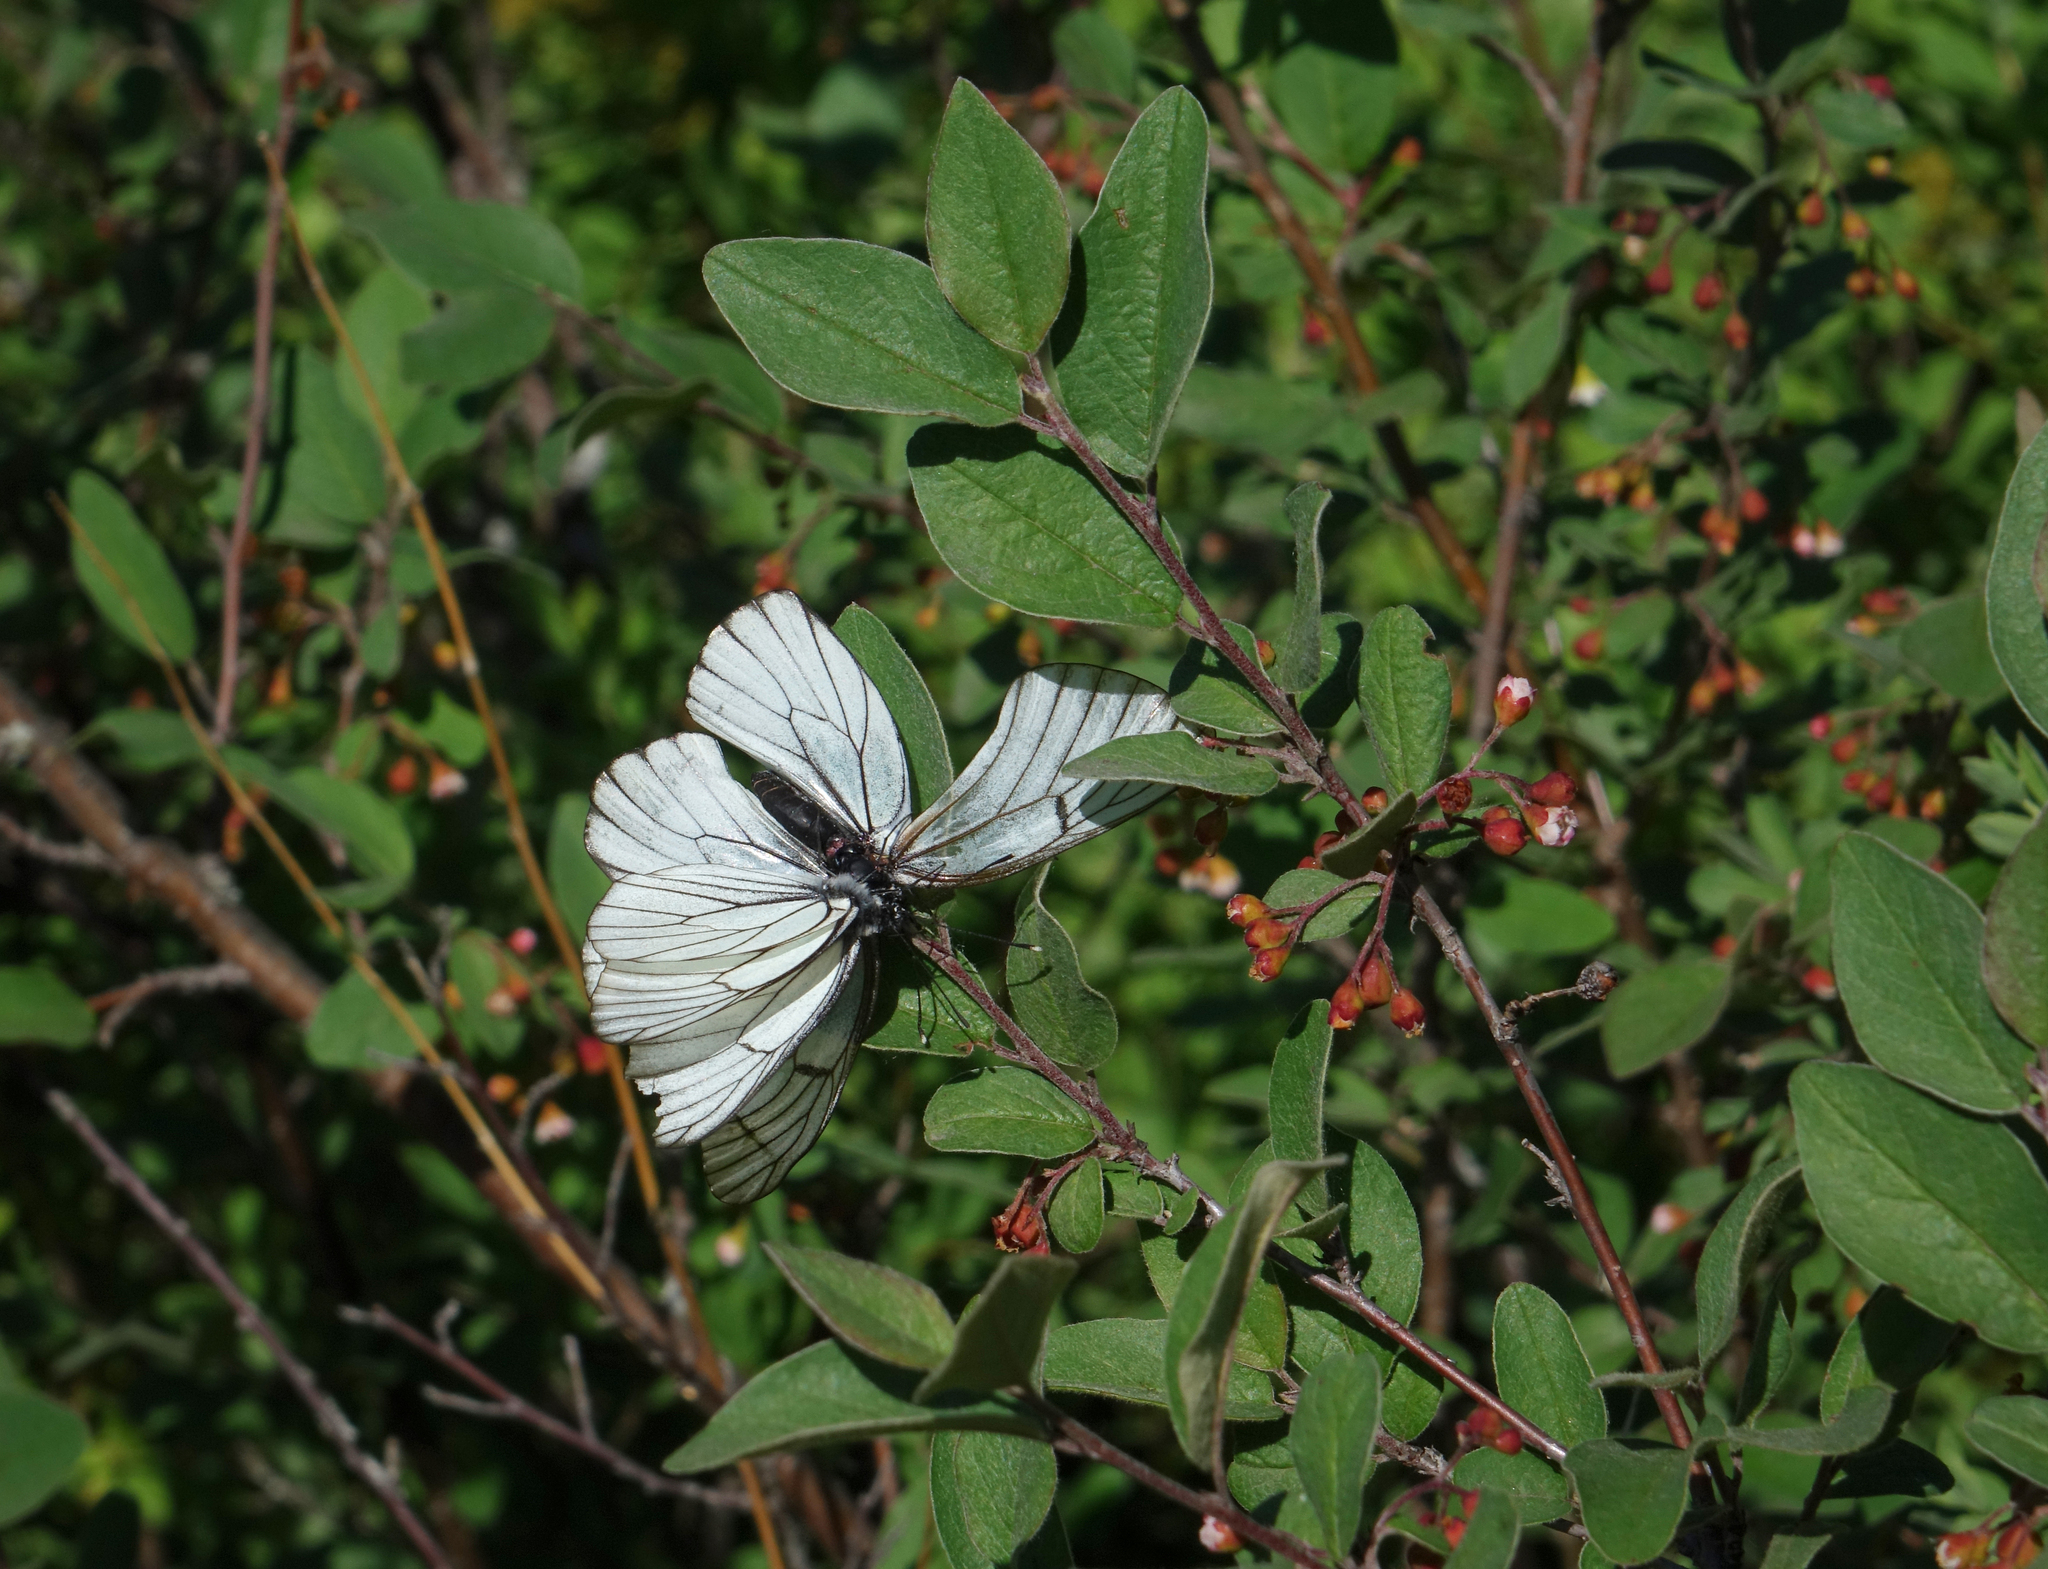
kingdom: Plantae
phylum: Tracheophyta
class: Magnoliopsida
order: Rosales
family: Rosaceae
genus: Cotoneaster
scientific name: Cotoneaster melanocarpus
